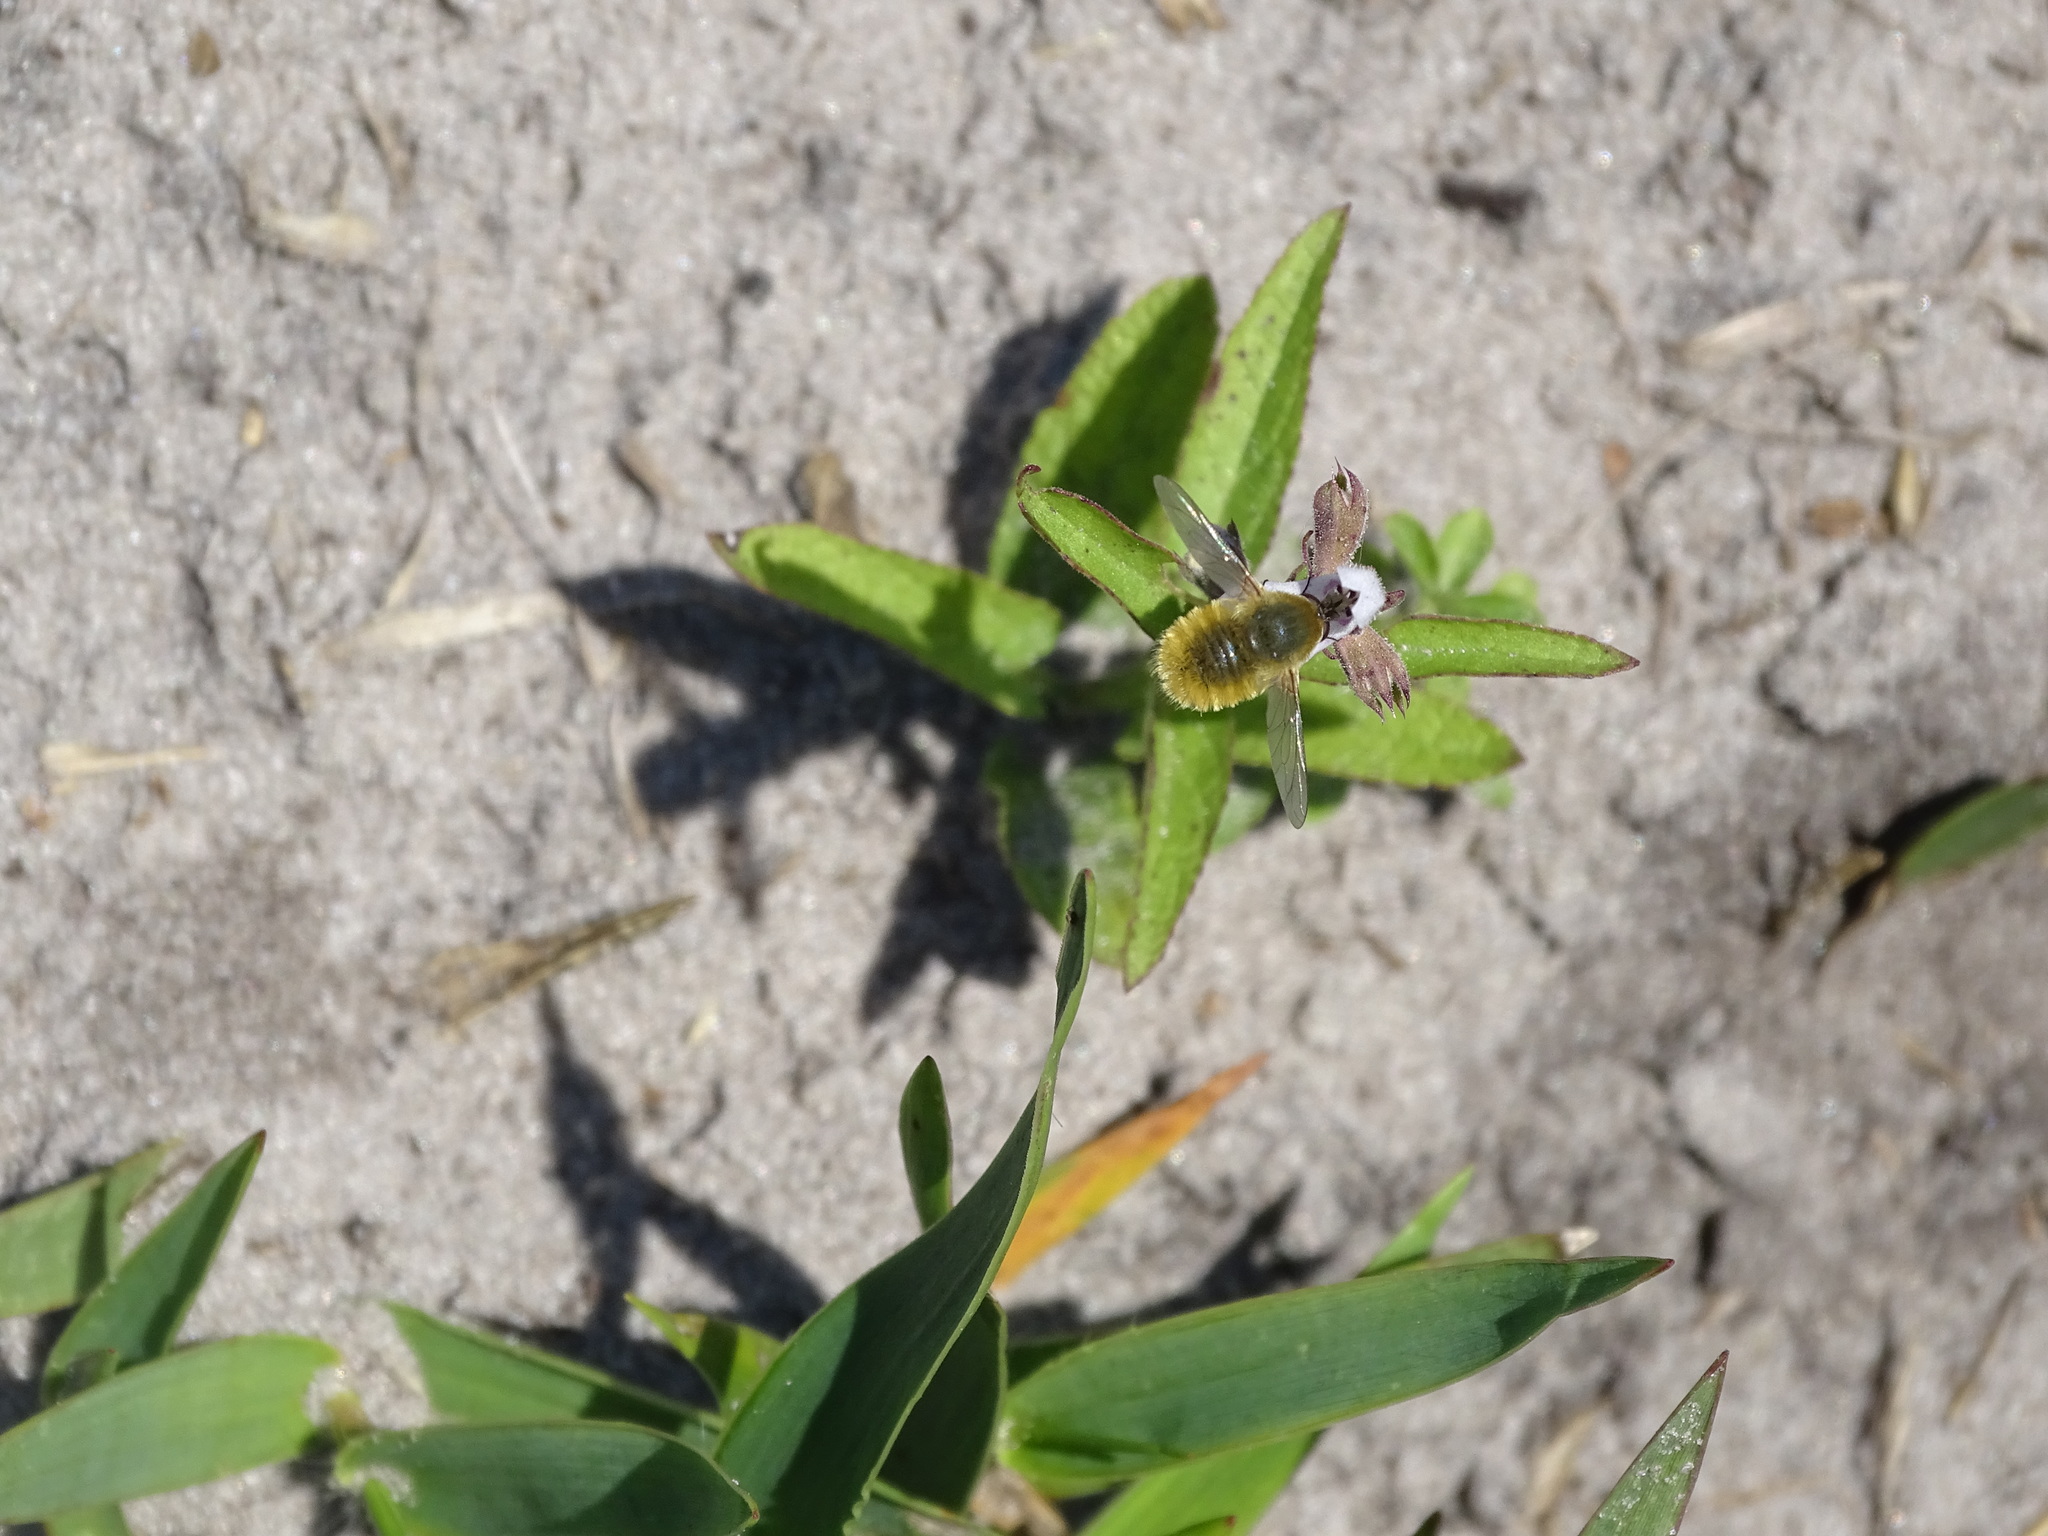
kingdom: Animalia
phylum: Arthropoda
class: Insecta
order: Diptera
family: Bombyliidae
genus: Systoechus
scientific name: Systoechus solitus
